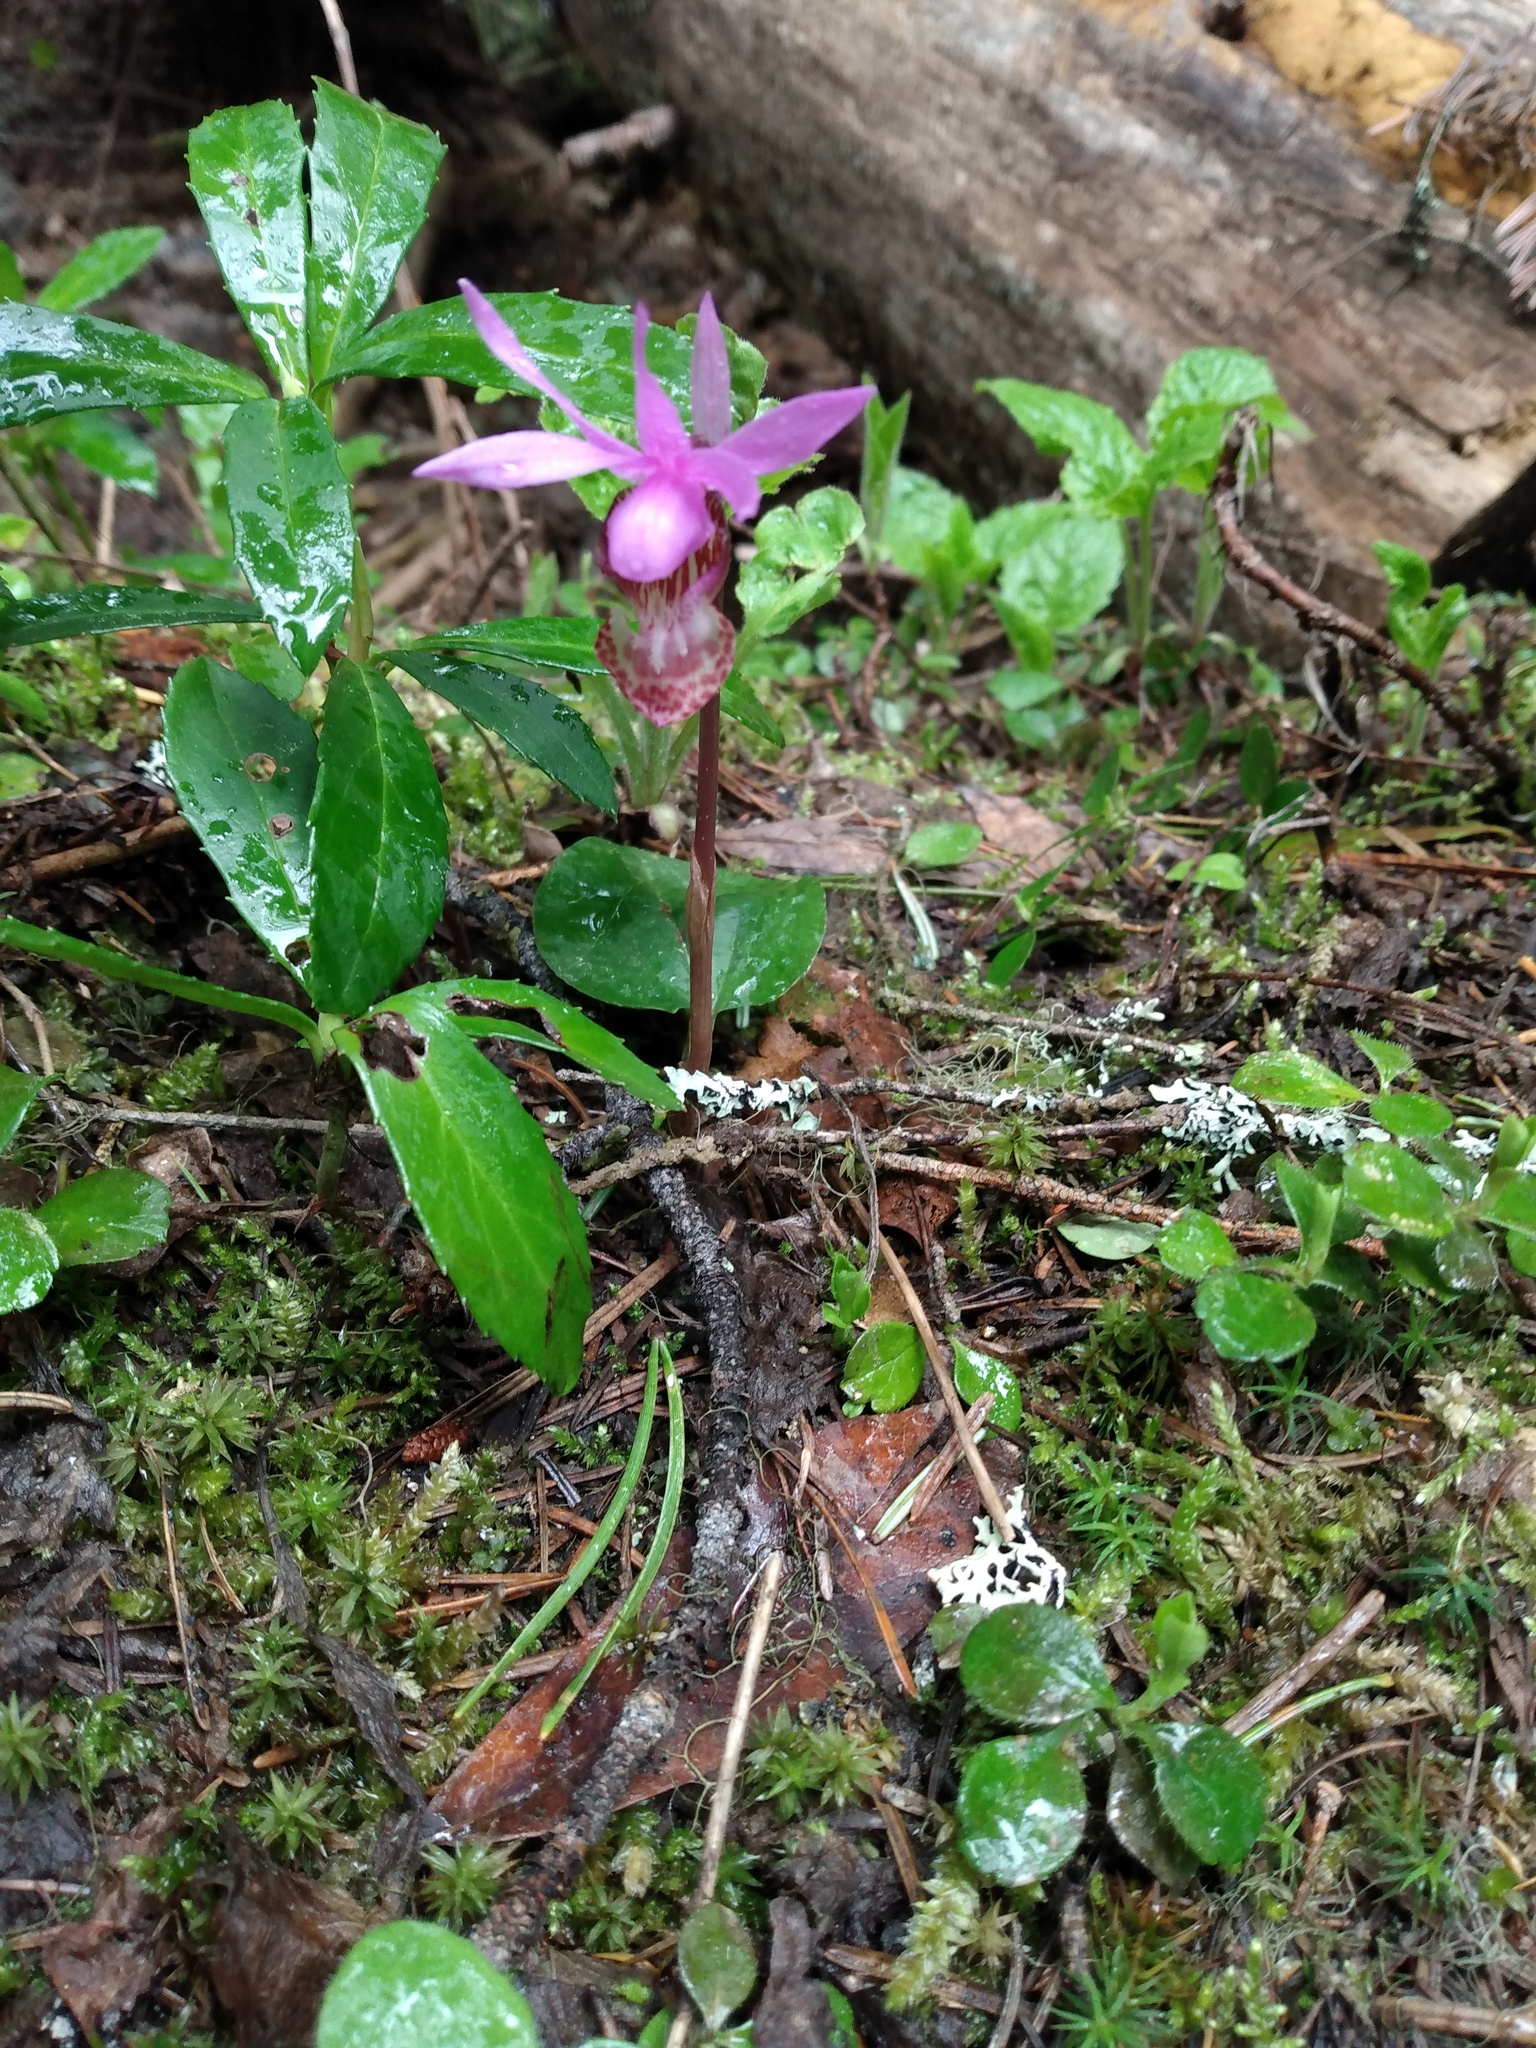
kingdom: Plantae
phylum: Tracheophyta
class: Liliopsida
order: Asparagales
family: Orchidaceae
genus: Calypso
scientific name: Calypso bulbosa
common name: Calypso
